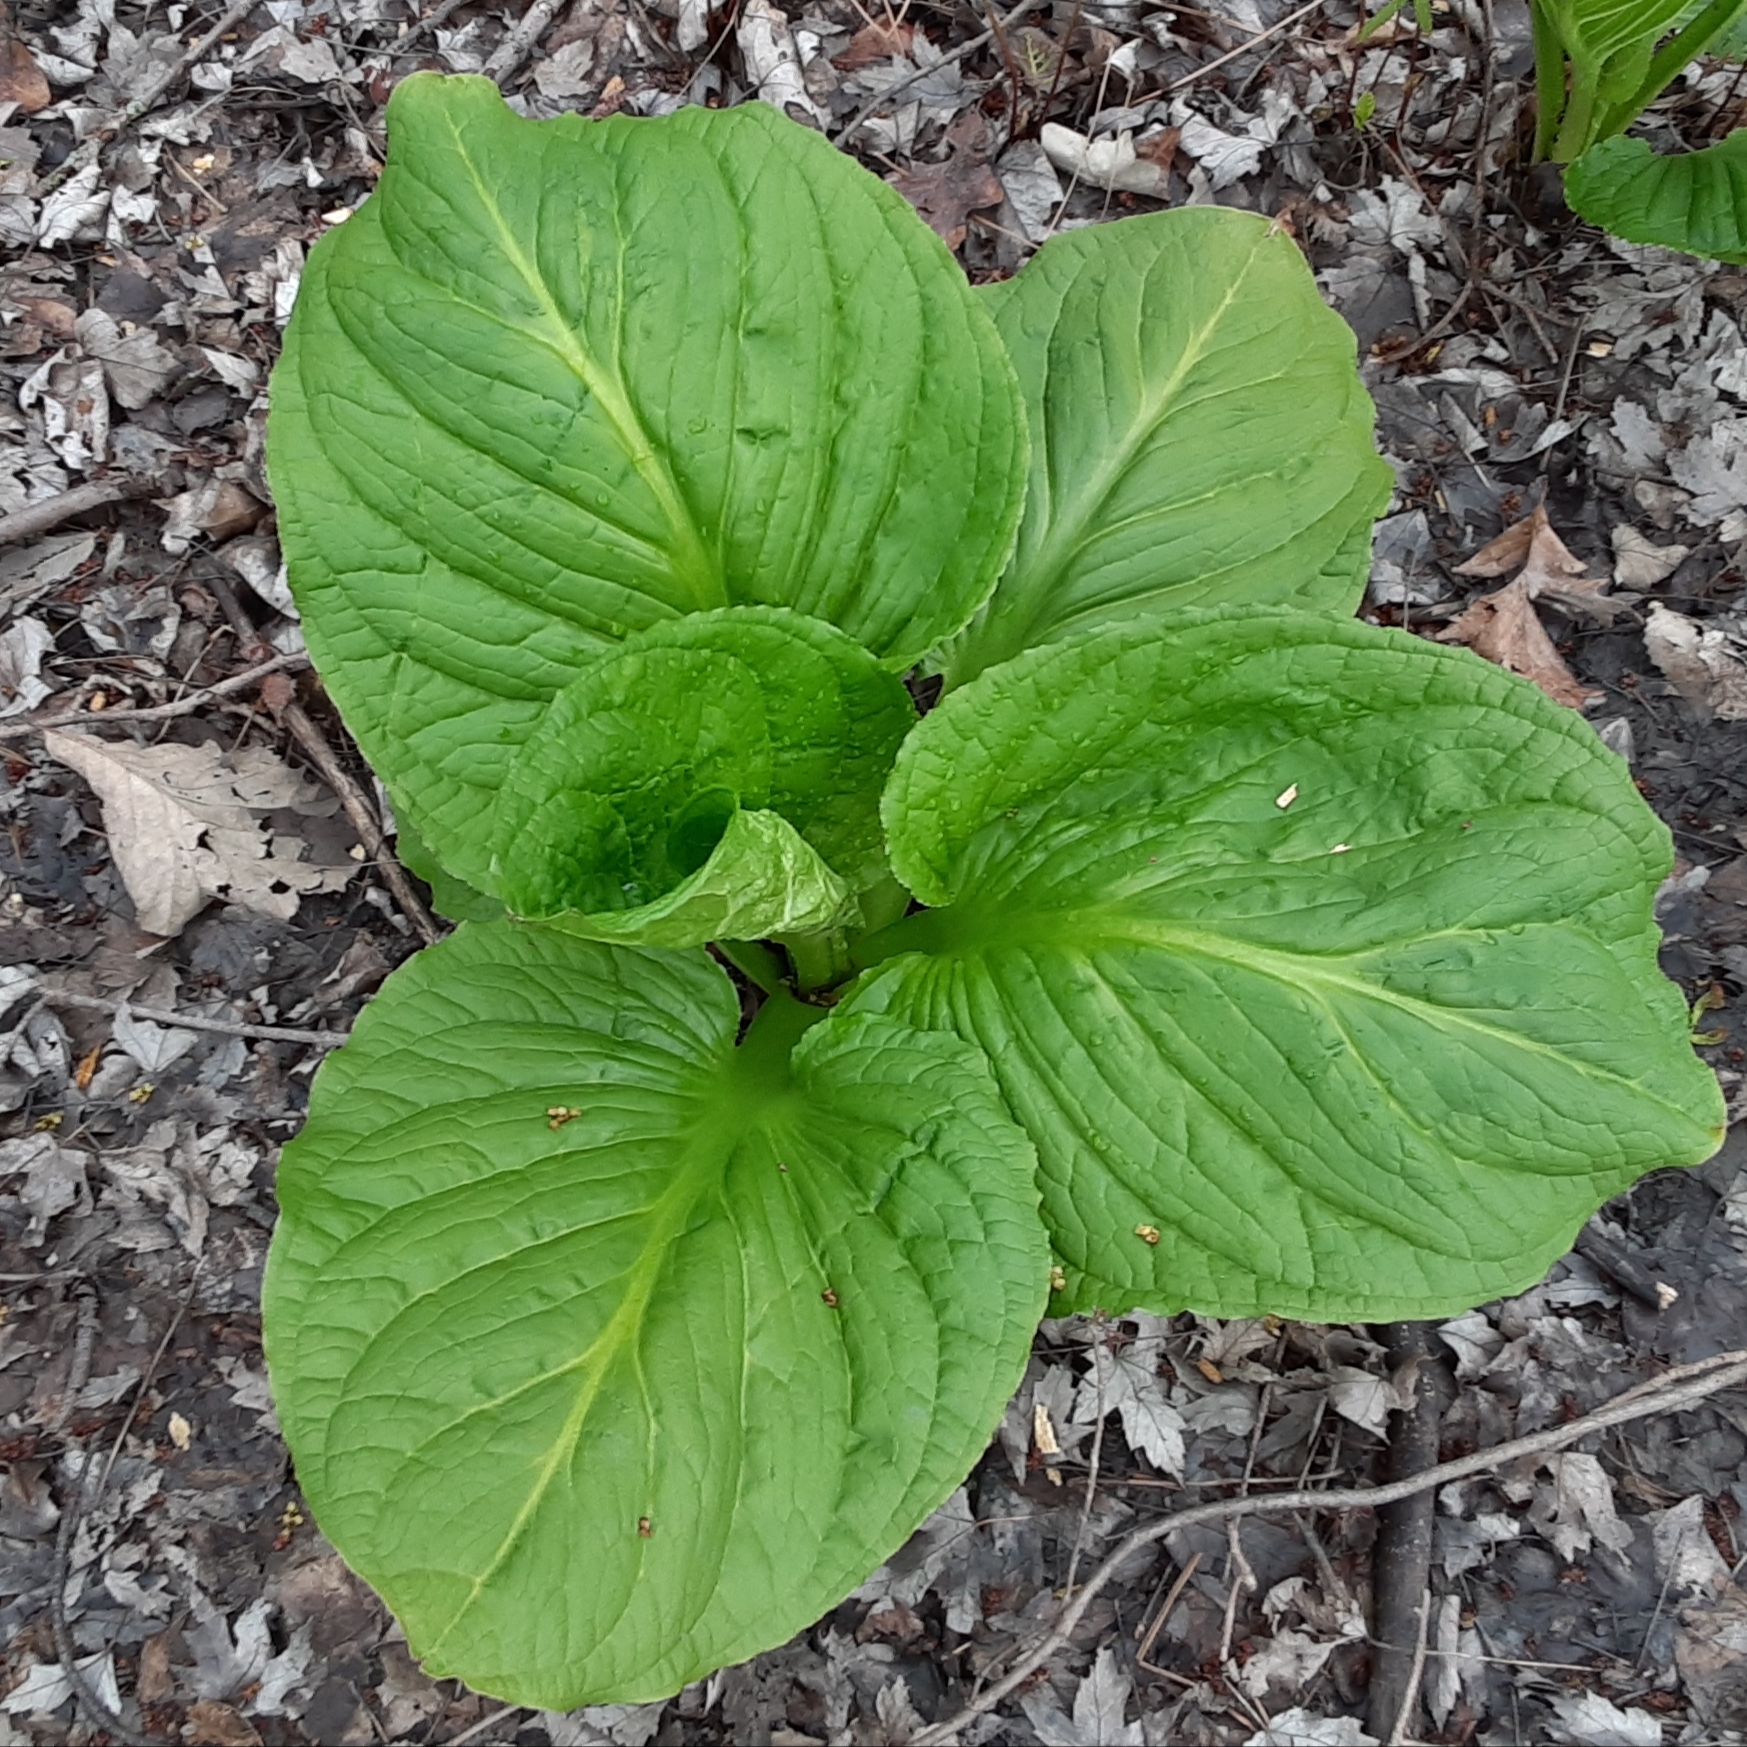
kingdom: Plantae
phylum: Tracheophyta
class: Liliopsida
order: Alismatales
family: Araceae
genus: Symplocarpus
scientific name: Symplocarpus foetidus
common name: Eastern skunk cabbage
